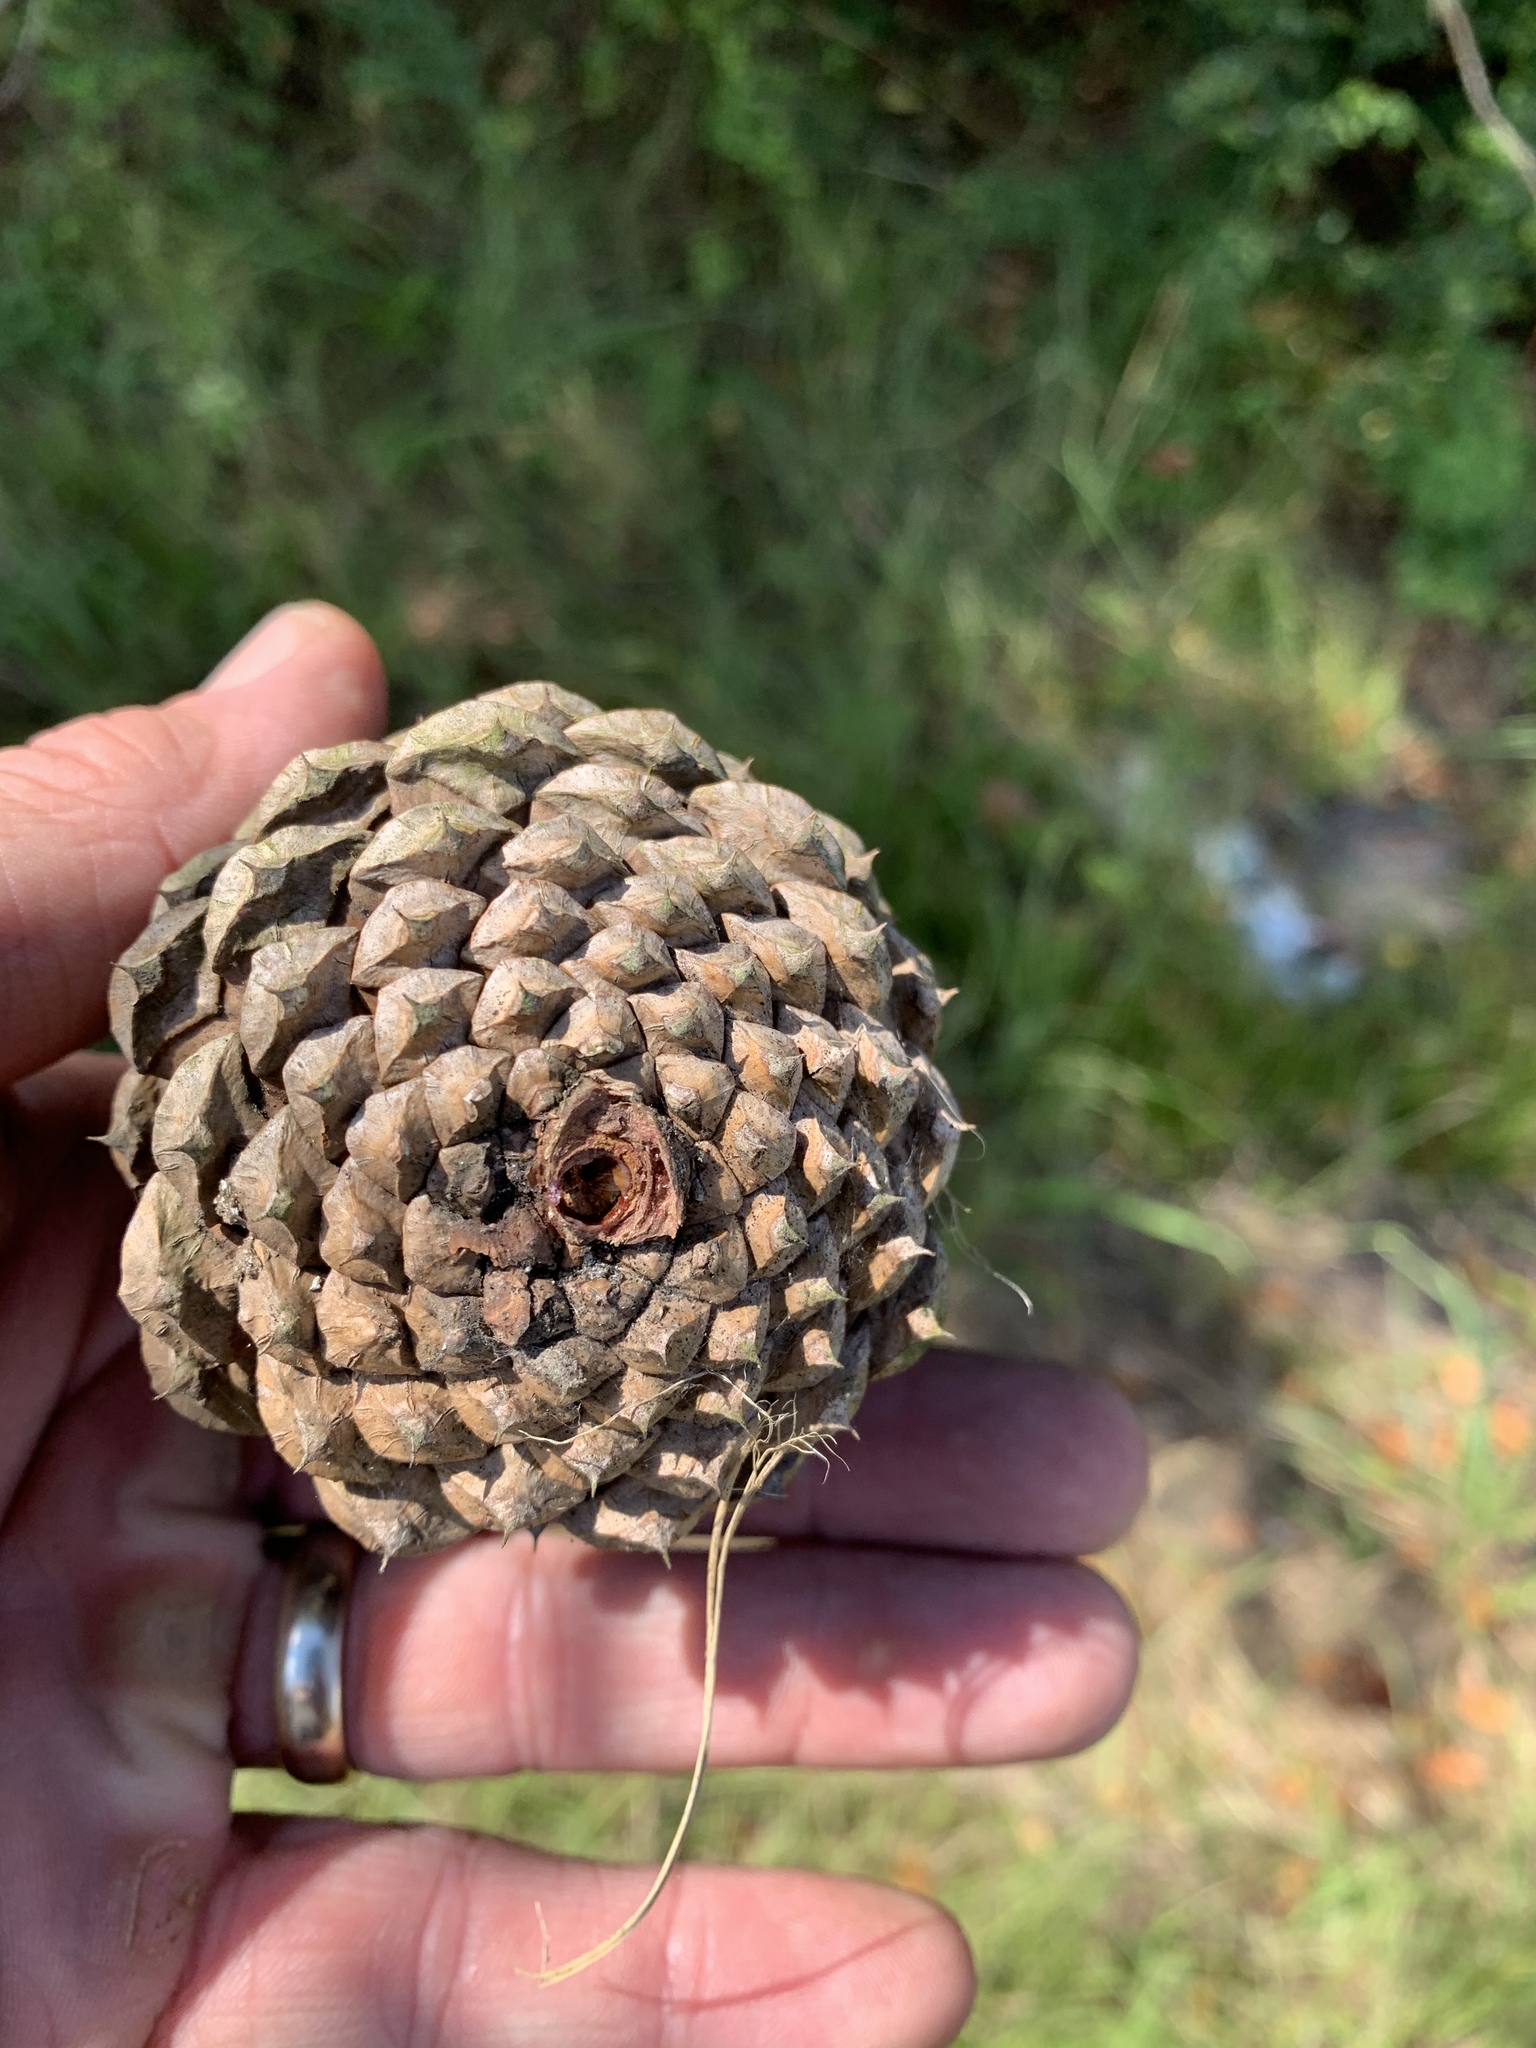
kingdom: Plantae
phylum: Tracheophyta
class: Pinopsida
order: Pinales
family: Pinaceae
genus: Pinus
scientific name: Pinus taeda
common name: Loblolly pine
